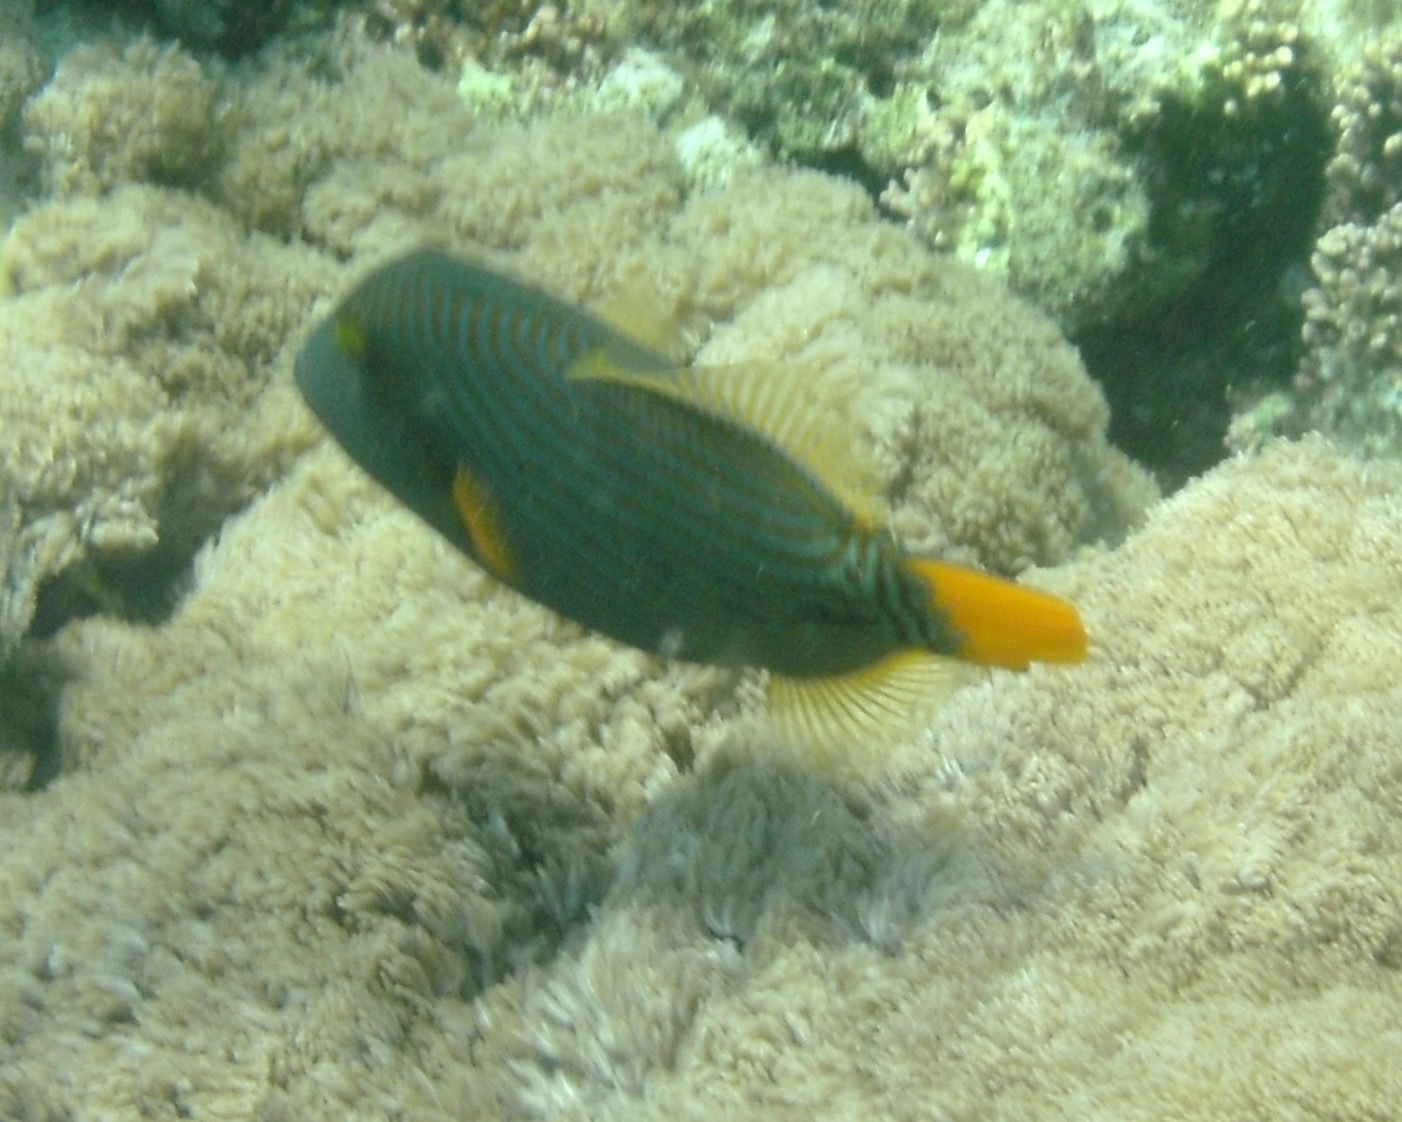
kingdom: Animalia
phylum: Chordata
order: Tetraodontiformes
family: Balistidae
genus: Balistapus
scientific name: Balistapus undulatus
